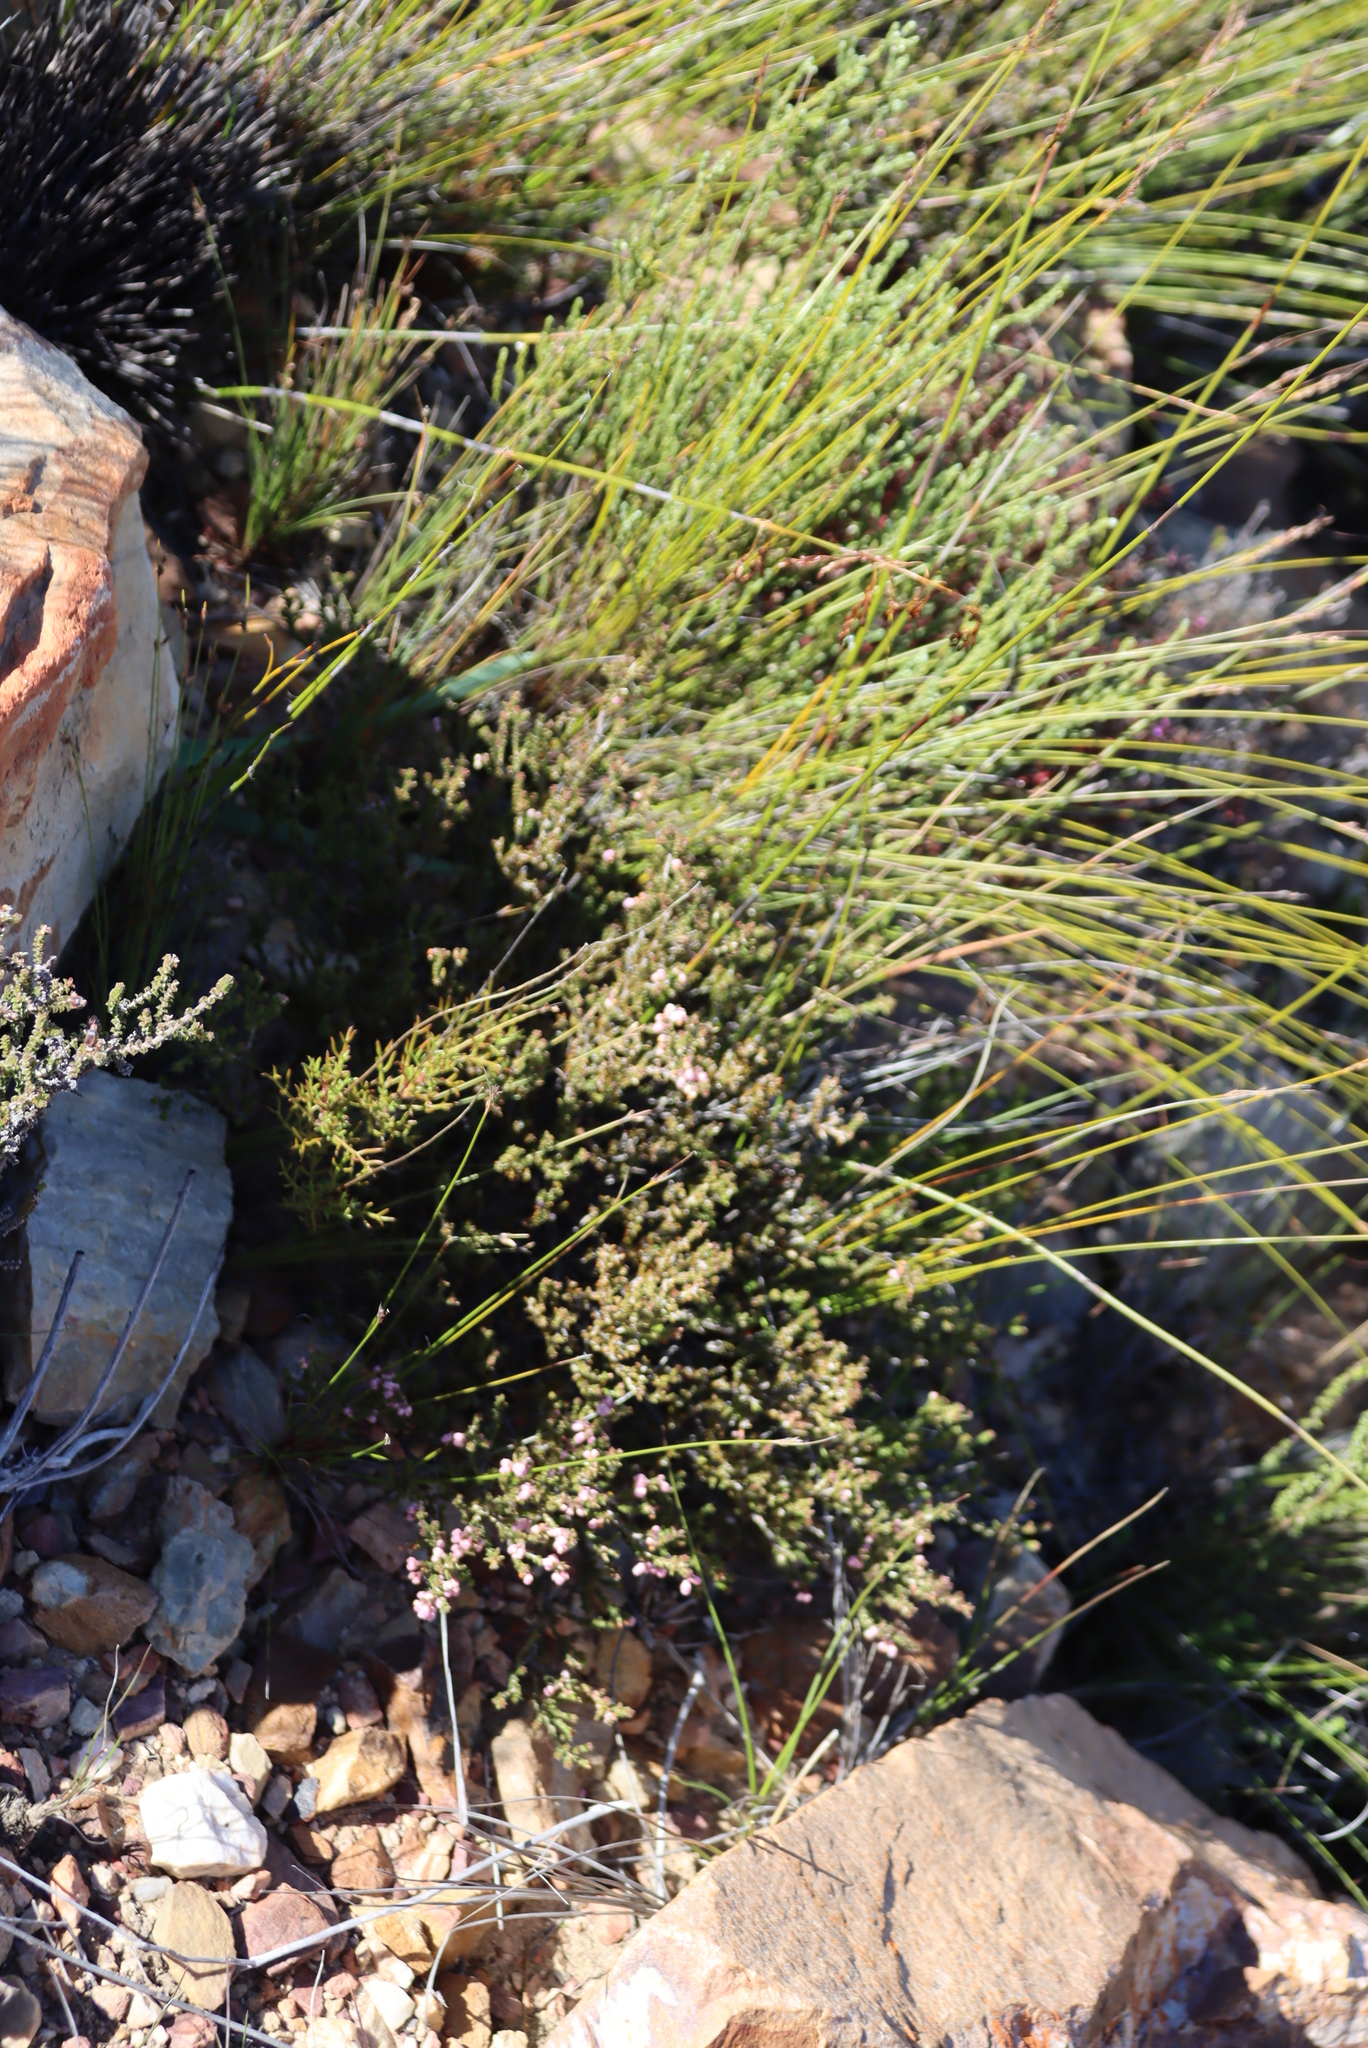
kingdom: Plantae
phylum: Tracheophyta
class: Magnoliopsida
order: Ericales
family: Ericaceae
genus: Erica
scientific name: Erica umbelliflora
